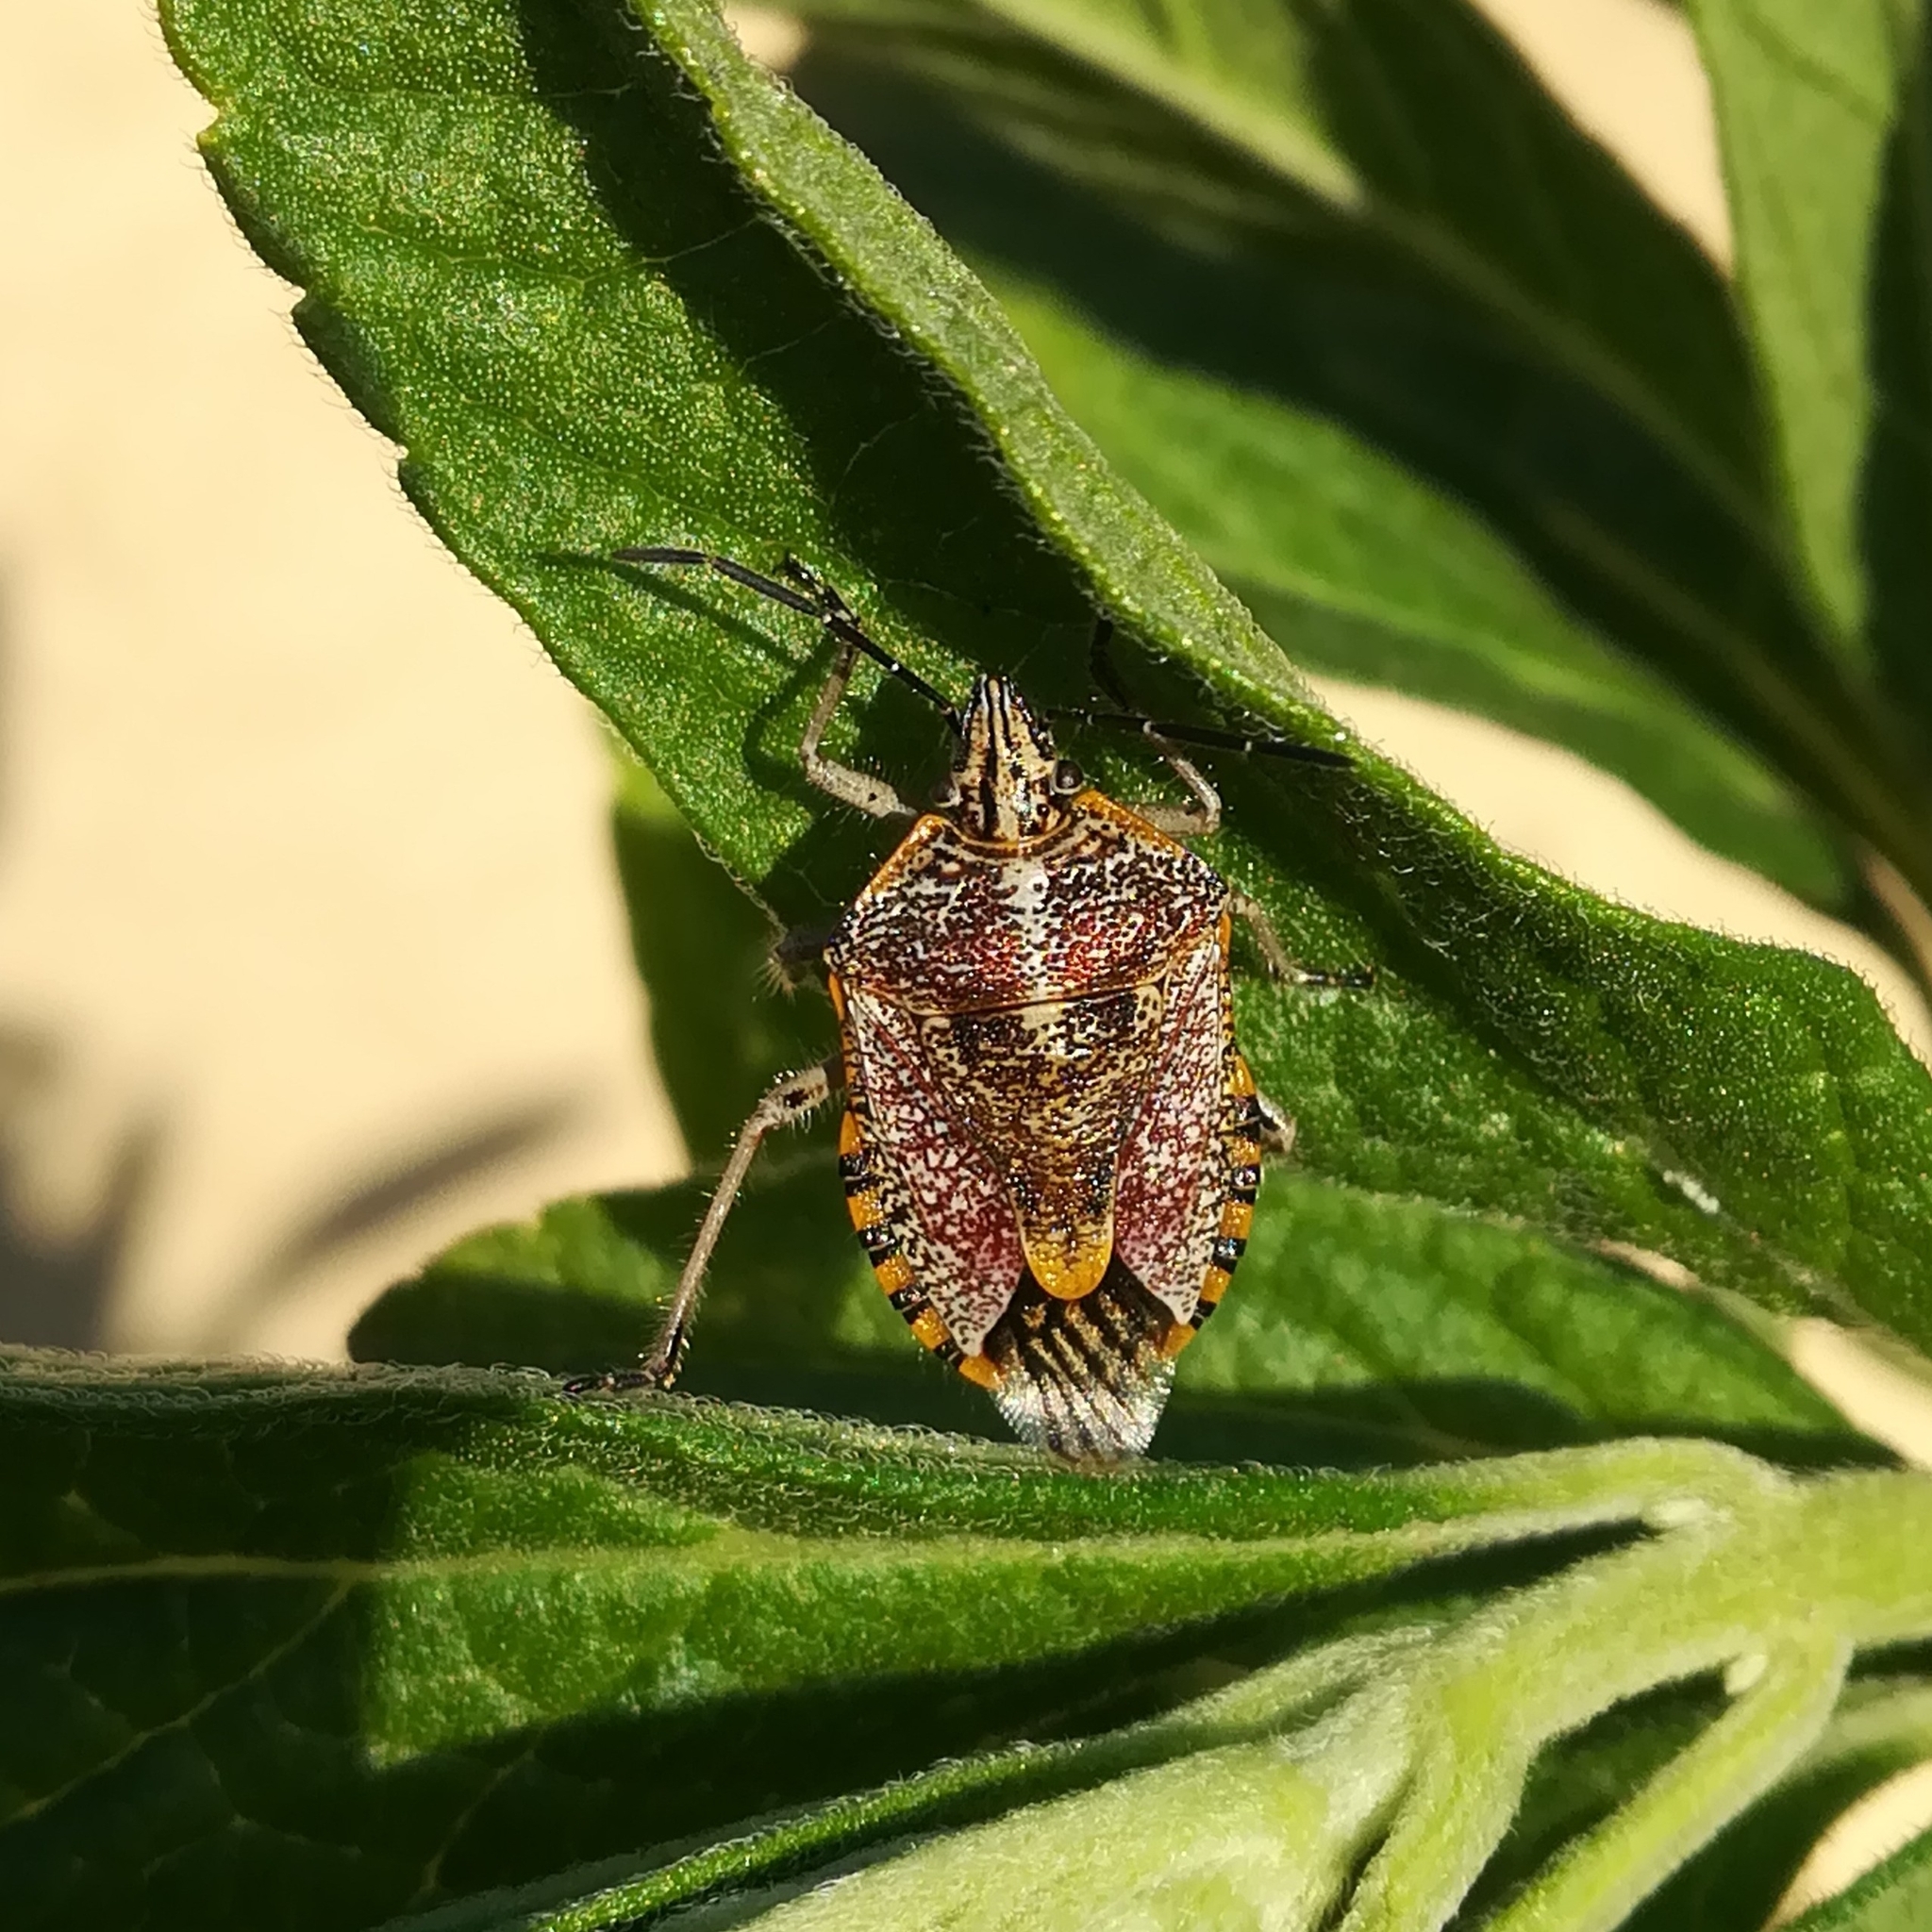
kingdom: Animalia
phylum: Arthropoda
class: Insecta
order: Hemiptera
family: Pentatomidae
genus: Agonoscelis
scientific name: Agonoscelis versicoloratus
